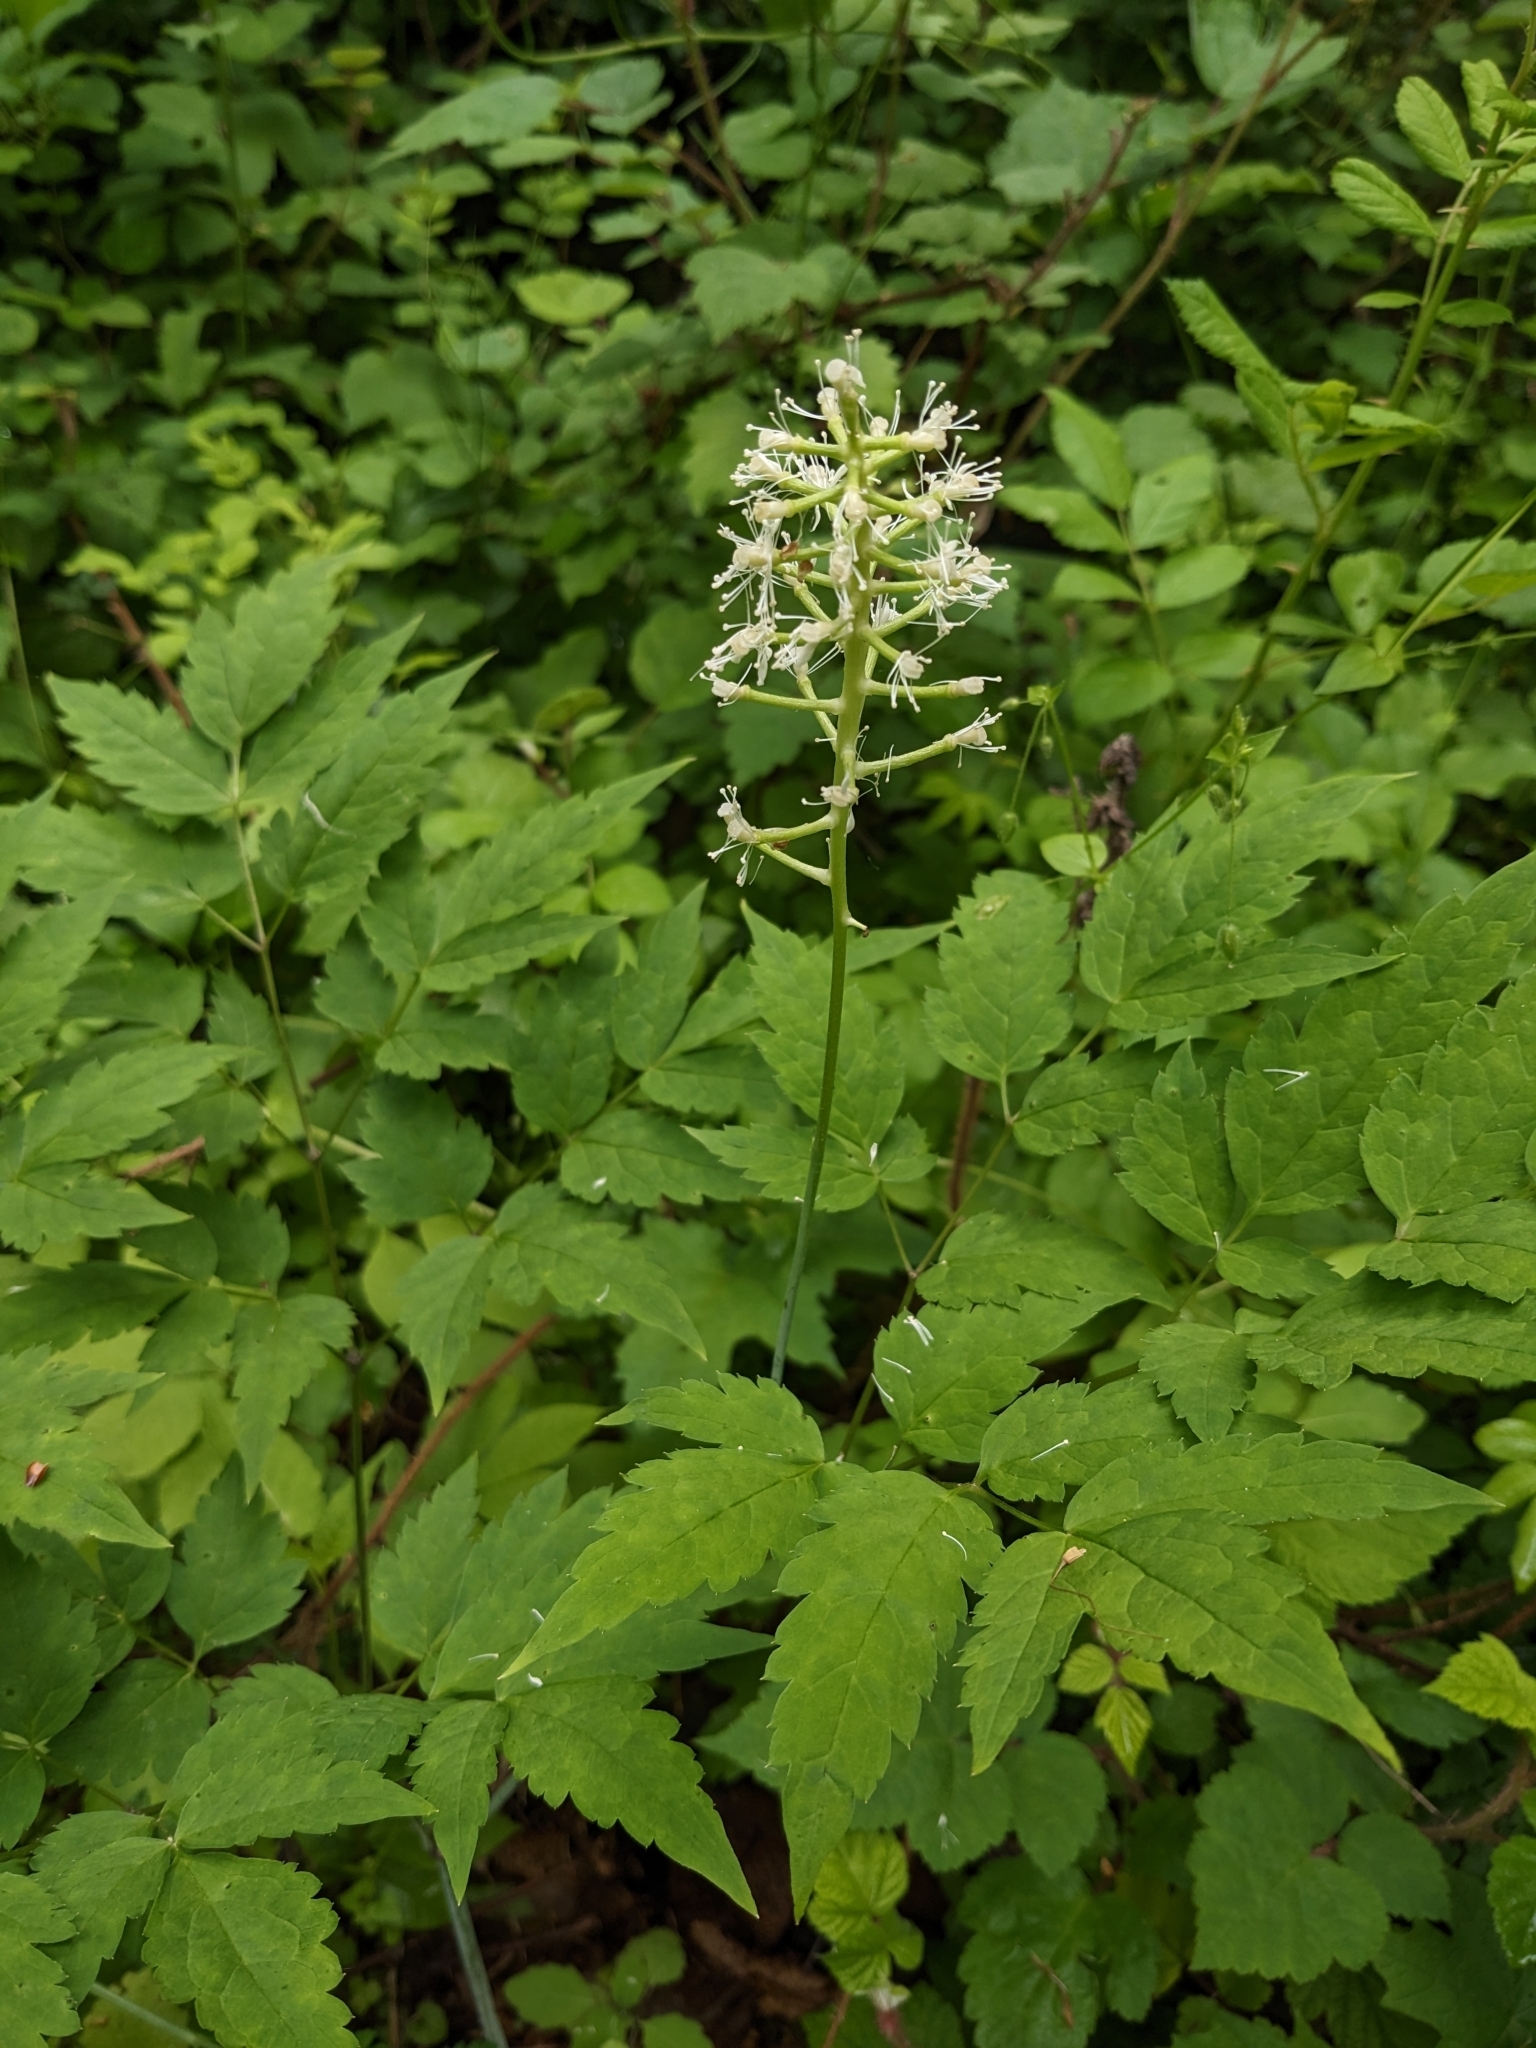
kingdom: Plantae
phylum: Tracheophyta
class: Magnoliopsida
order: Ranunculales
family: Ranunculaceae
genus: Actaea
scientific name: Actaea pachypoda
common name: Doll's-eyes
